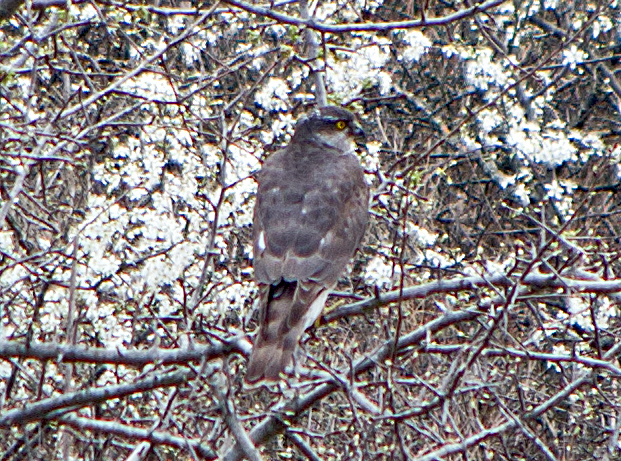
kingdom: Animalia
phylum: Chordata
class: Aves
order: Accipitriformes
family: Accipitridae
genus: Accipiter
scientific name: Accipiter nisus
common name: Eurasian sparrowhawk
